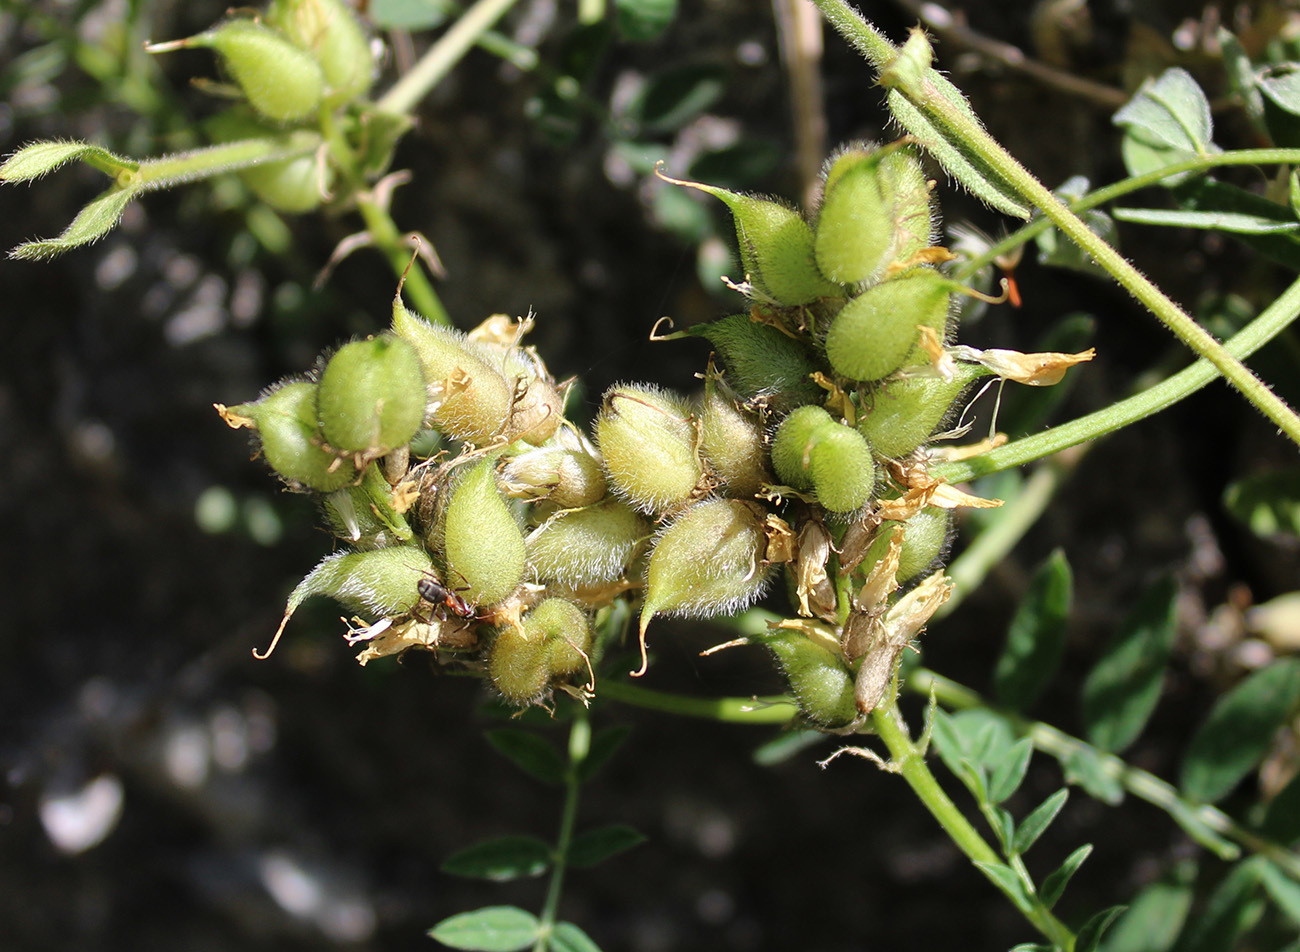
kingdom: Plantae
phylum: Tracheophyta
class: Magnoliopsida
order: Fabales
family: Fabaceae
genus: Astragalus
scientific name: Astragalus cicer
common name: Chick-pea milk-vetch
